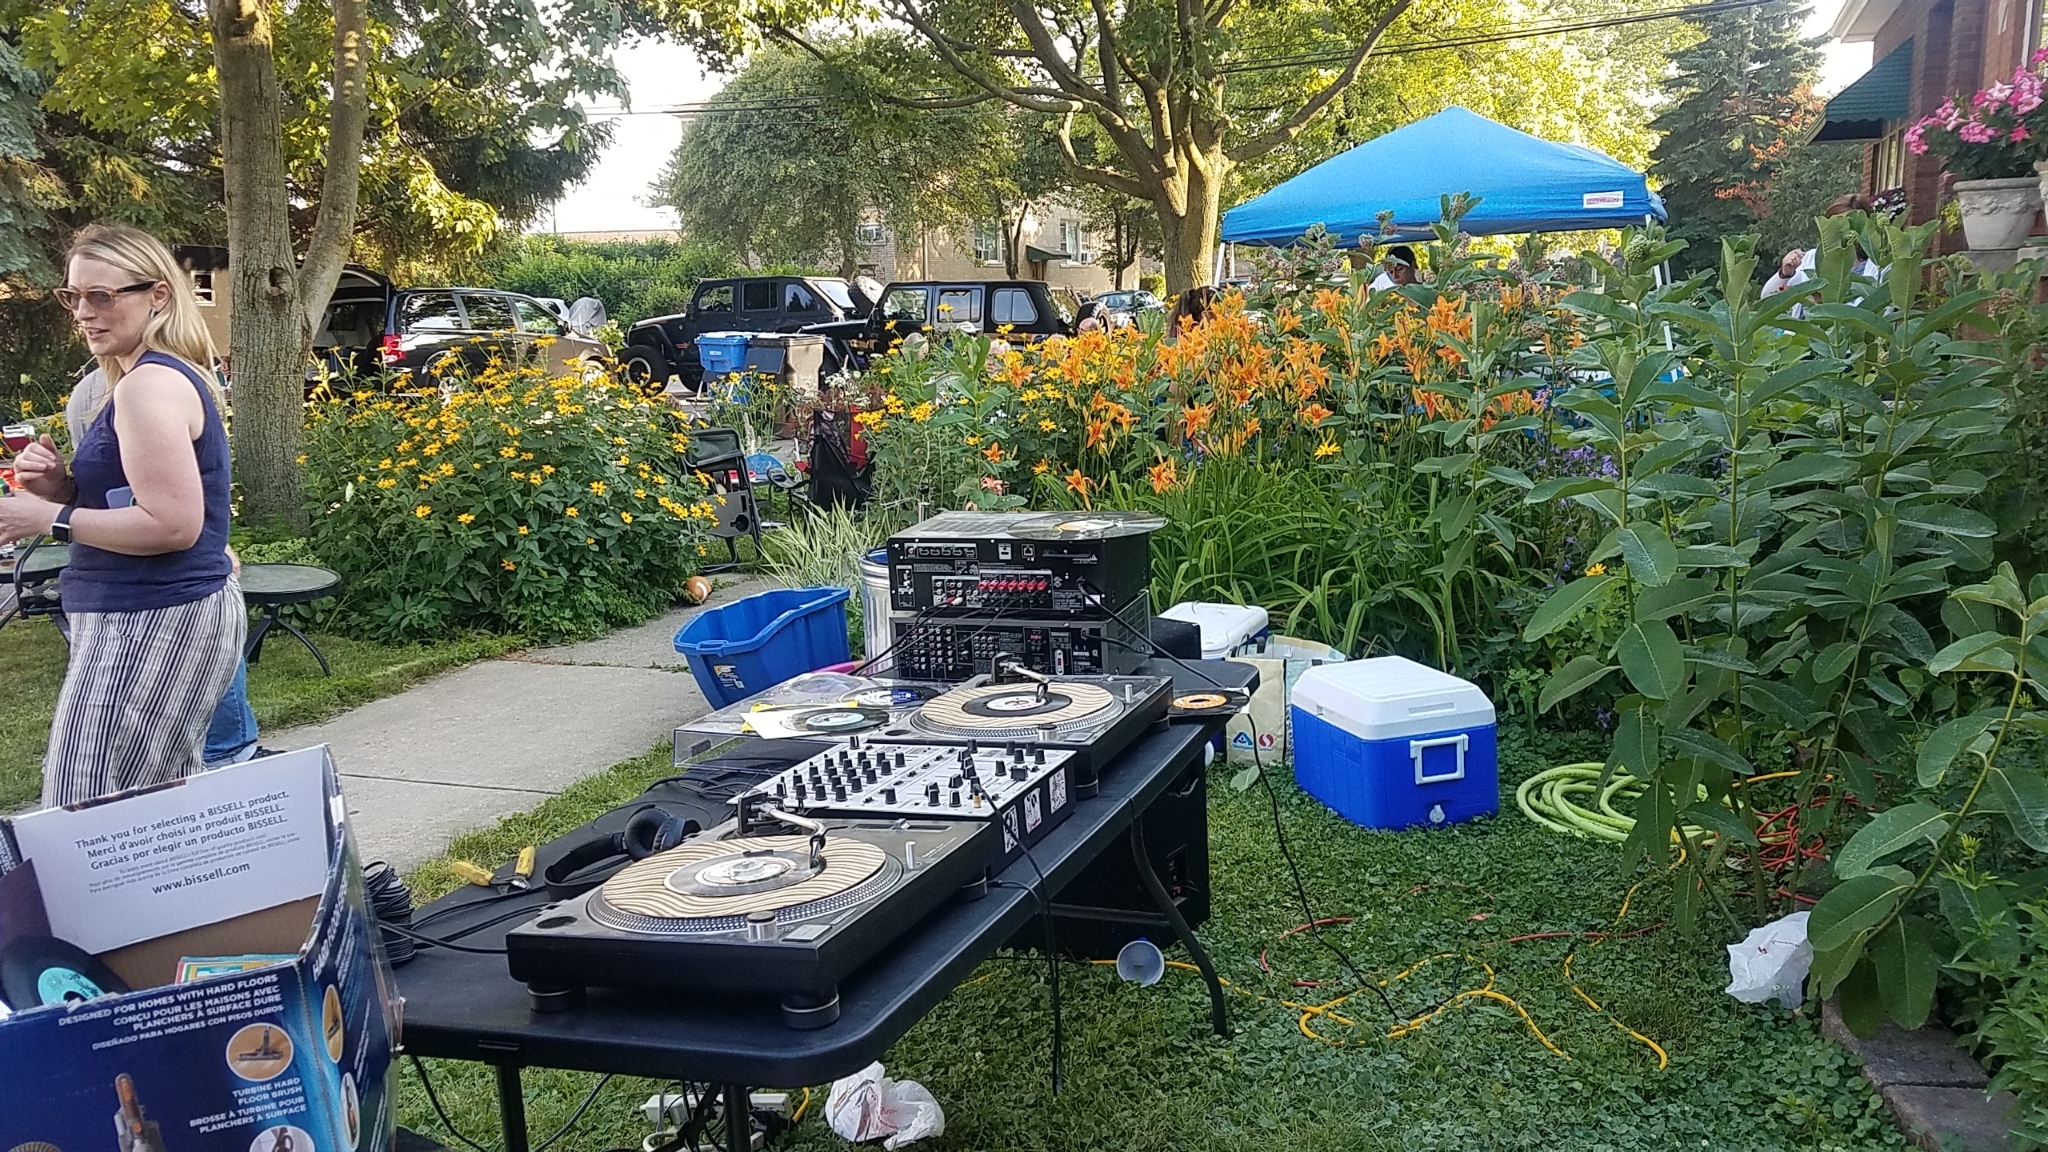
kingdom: Plantae
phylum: Tracheophyta
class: Magnoliopsida
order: Asterales
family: Asteraceae
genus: Heliopsis
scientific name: Heliopsis helianthoides
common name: False sunflower
